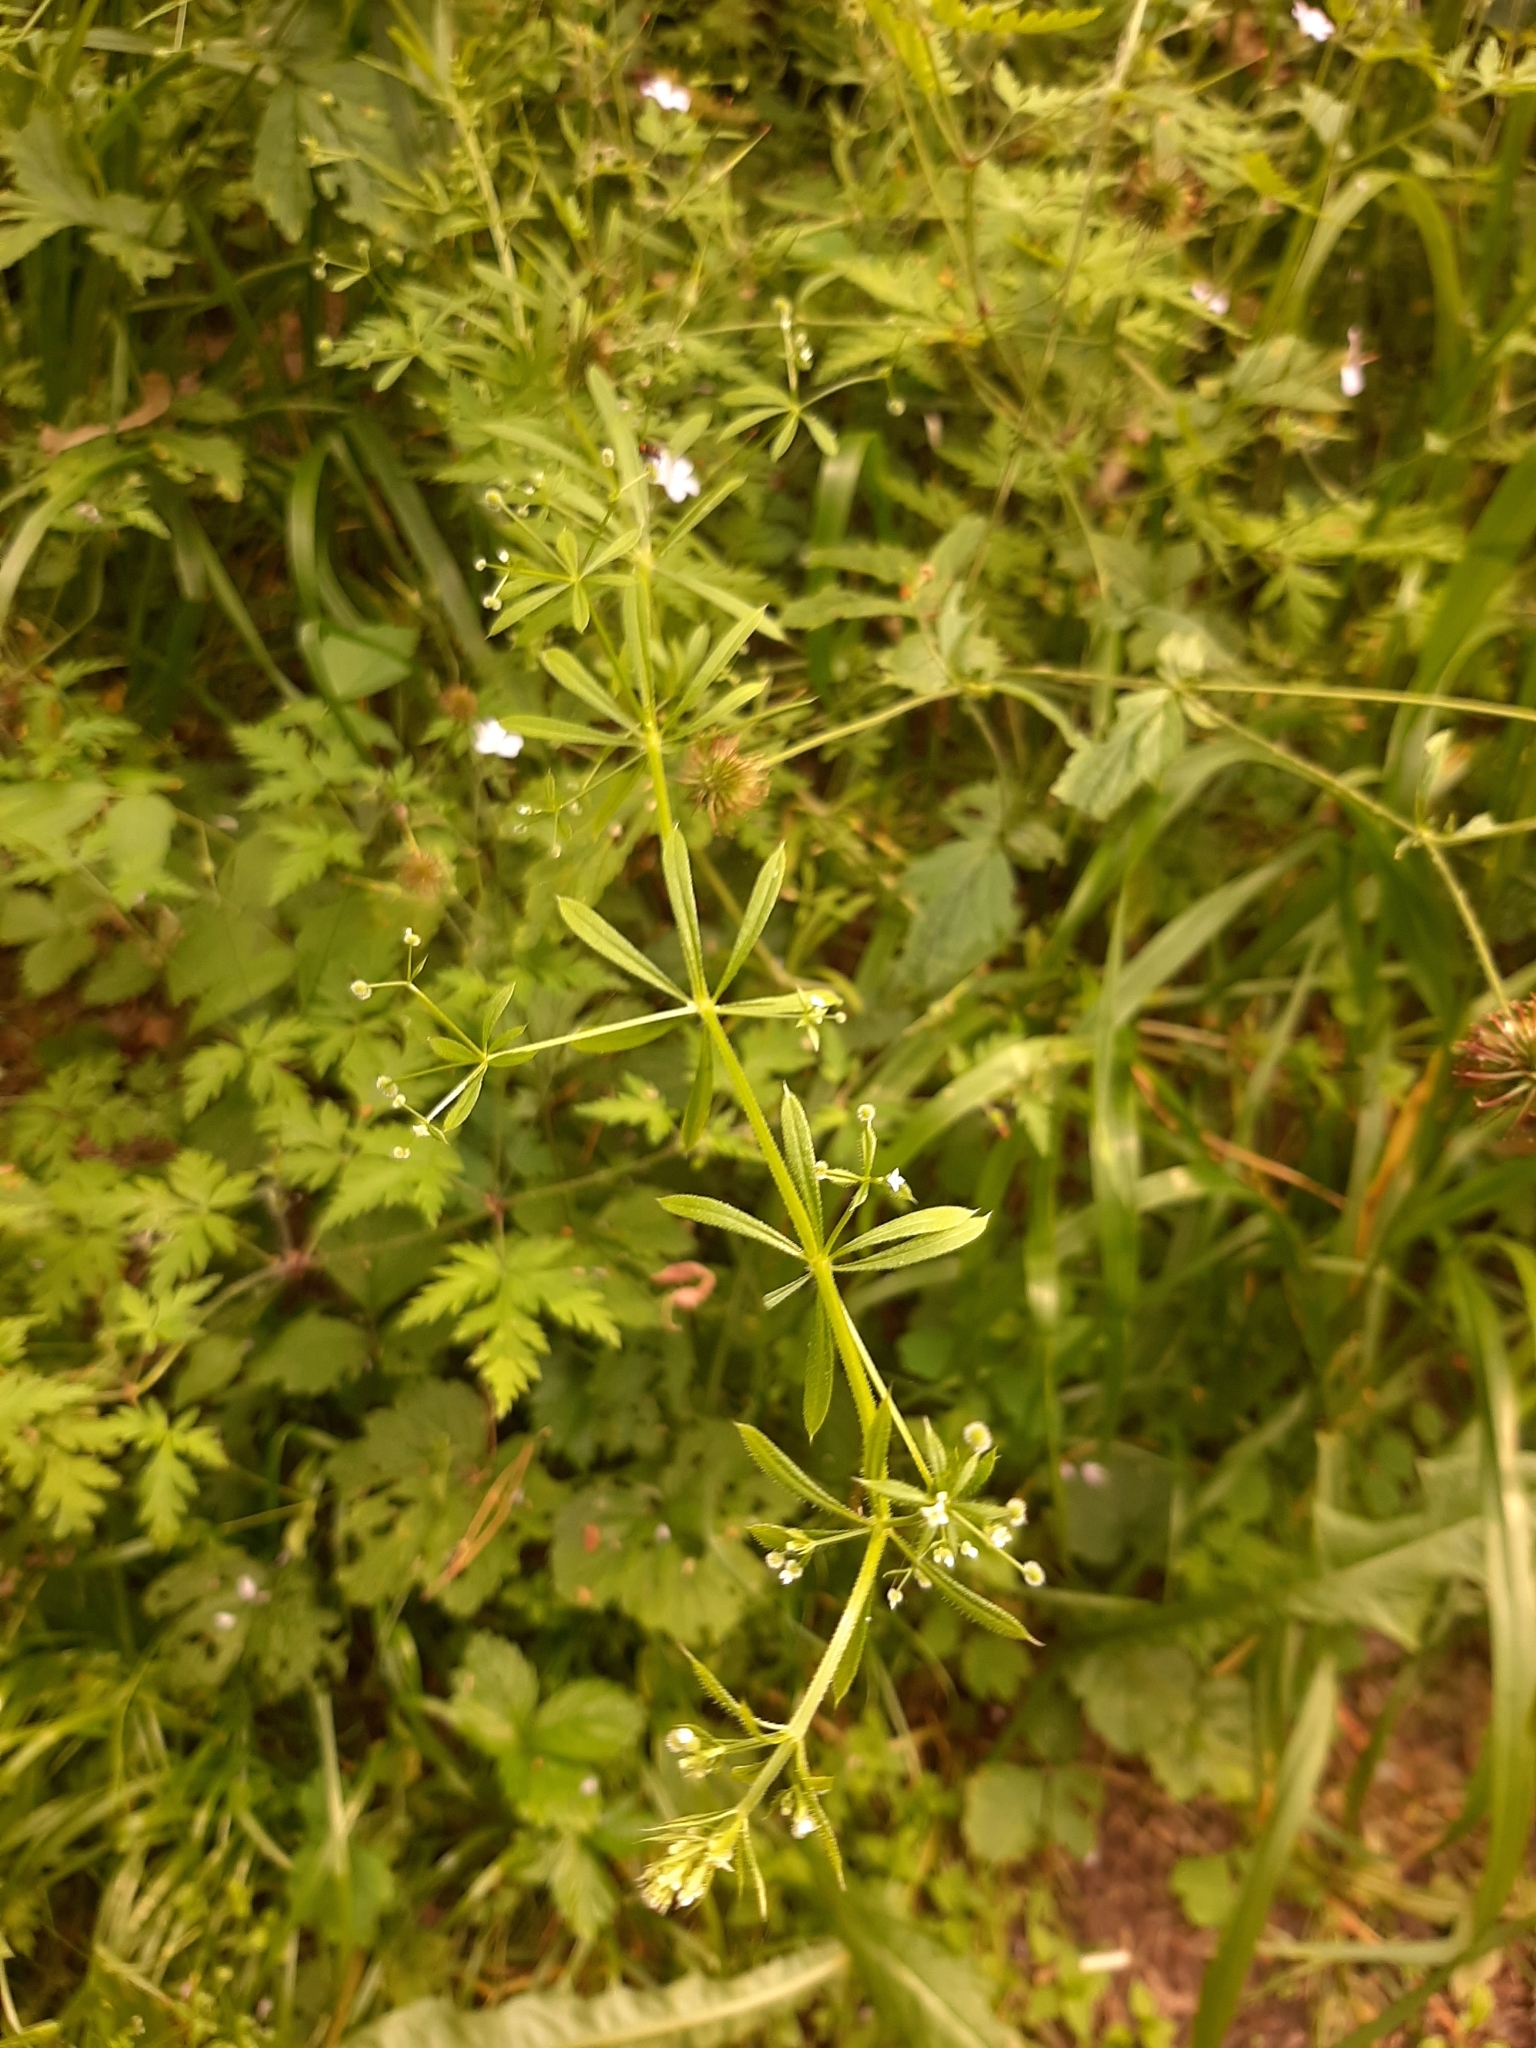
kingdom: Plantae
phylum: Tracheophyta
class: Magnoliopsida
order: Gentianales
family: Rubiaceae
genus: Galium
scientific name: Galium aparine
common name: Cleavers
